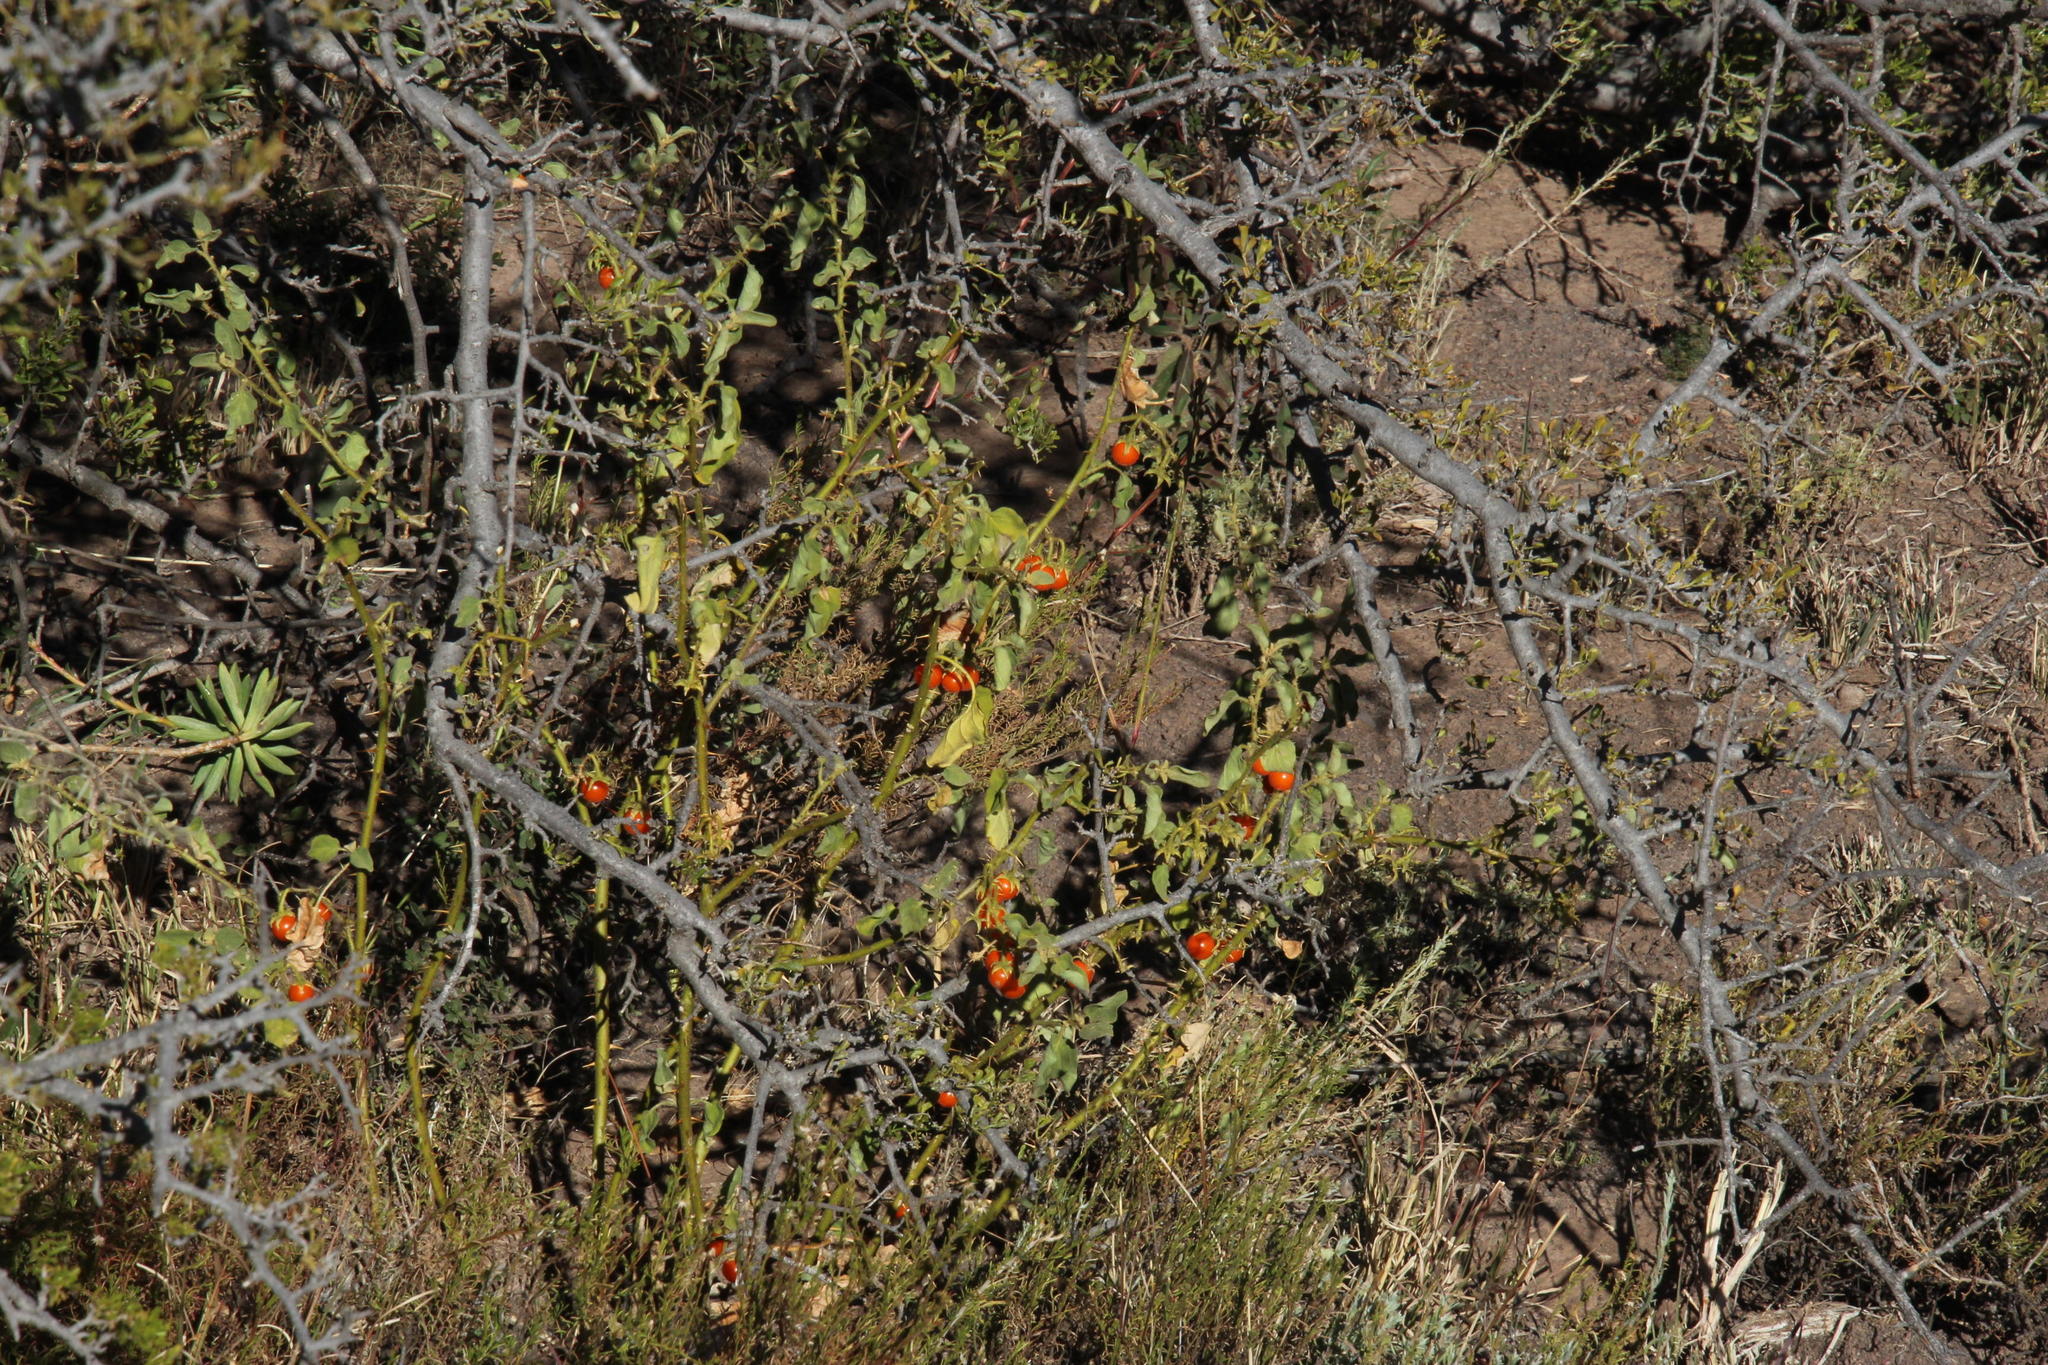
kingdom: Plantae
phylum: Tracheophyta
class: Magnoliopsida
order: Solanales
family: Solanaceae
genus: Solanum
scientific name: Solanum tomentosum
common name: Wild aubergine
